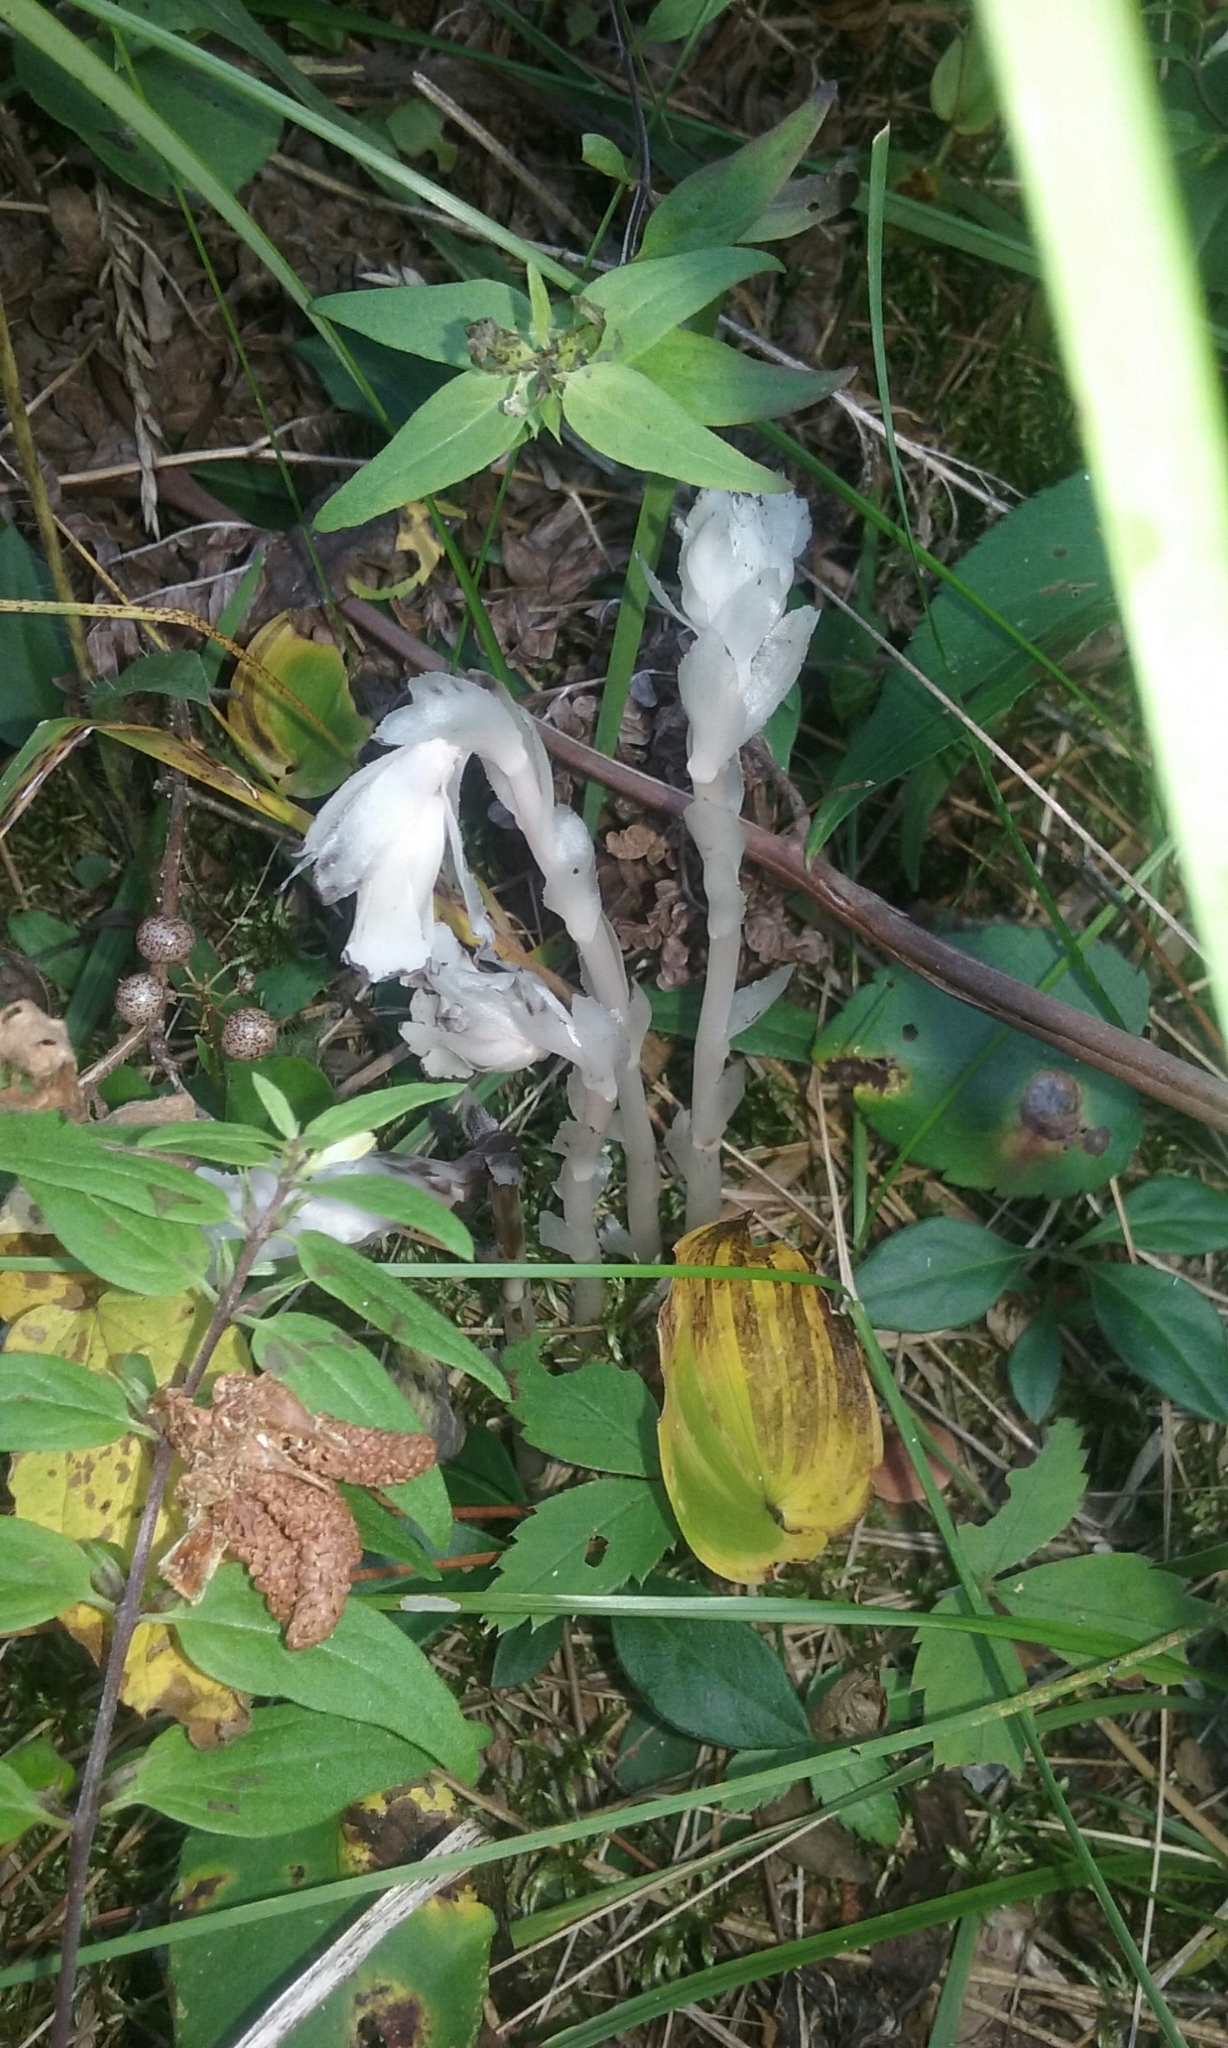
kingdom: Plantae
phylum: Tracheophyta
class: Magnoliopsida
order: Ericales
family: Ericaceae
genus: Monotropa
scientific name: Monotropa uniflora
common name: Convulsion root
